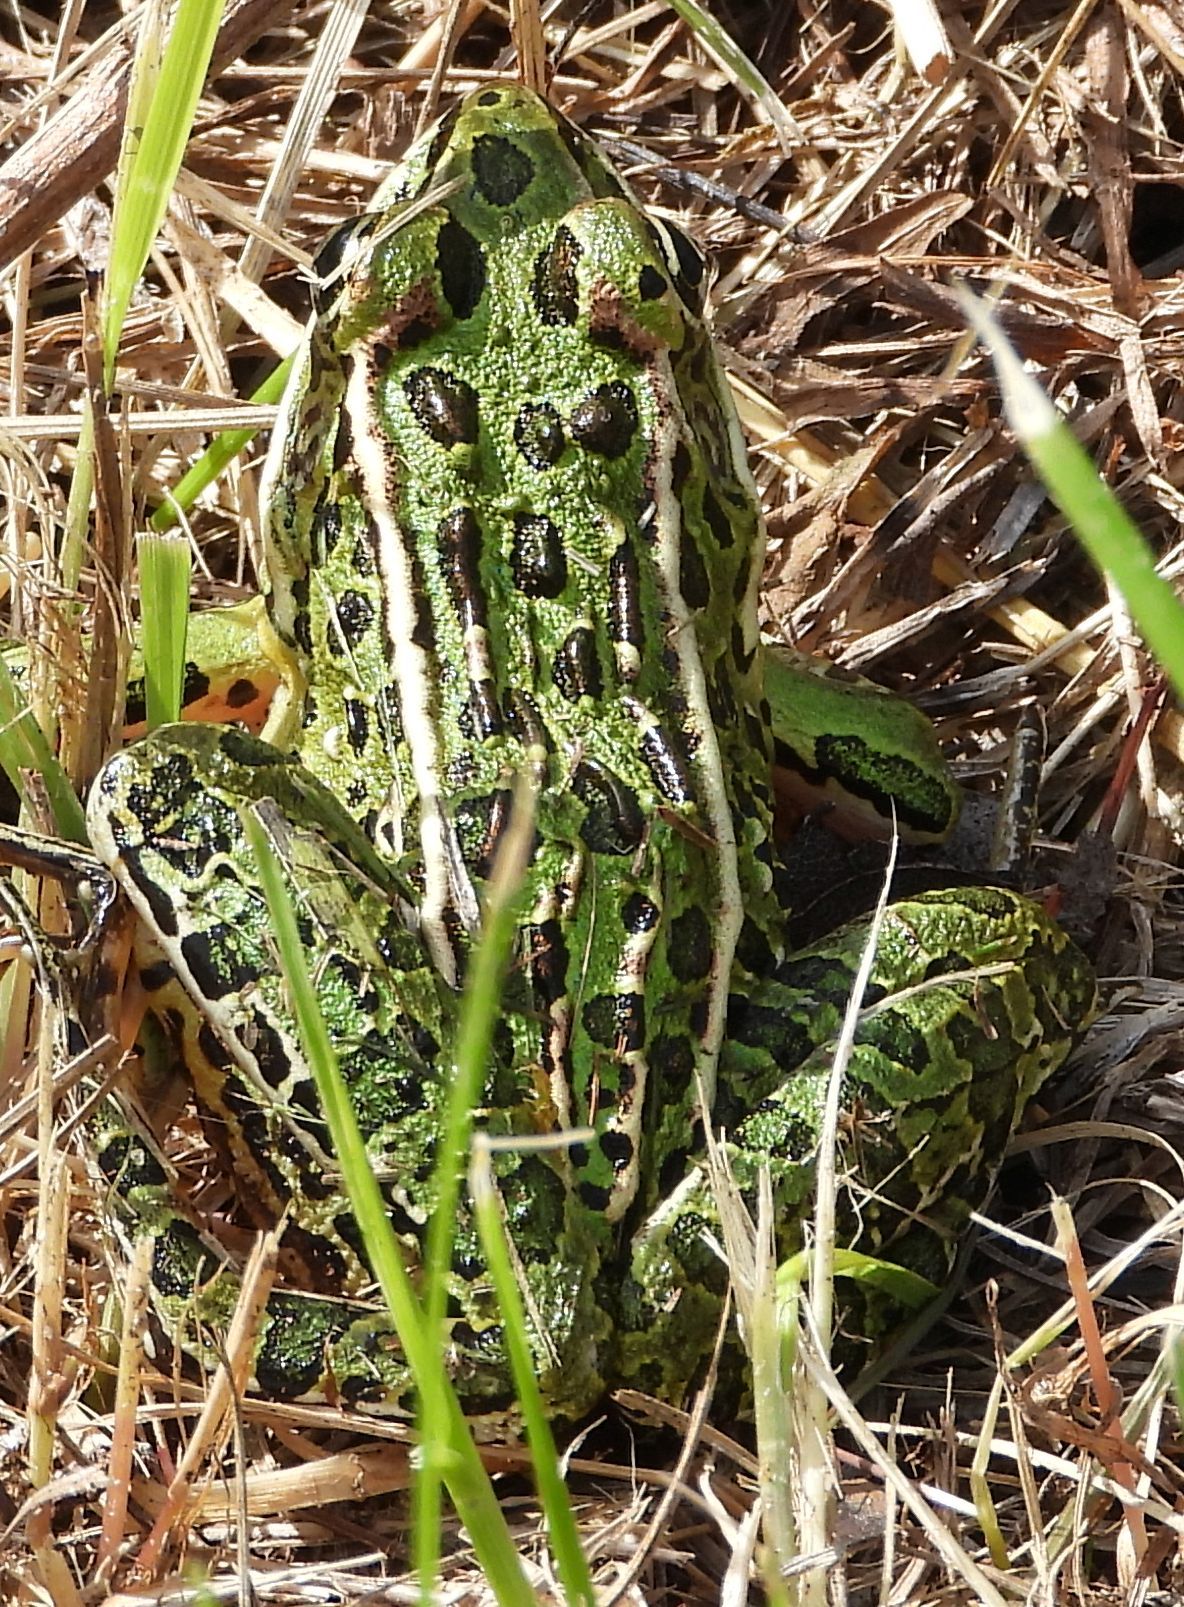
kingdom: Animalia
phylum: Chordata
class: Amphibia
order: Anura
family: Ranidae
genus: Lithobates
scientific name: Lithobates pipiens
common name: Northern leopard frog
